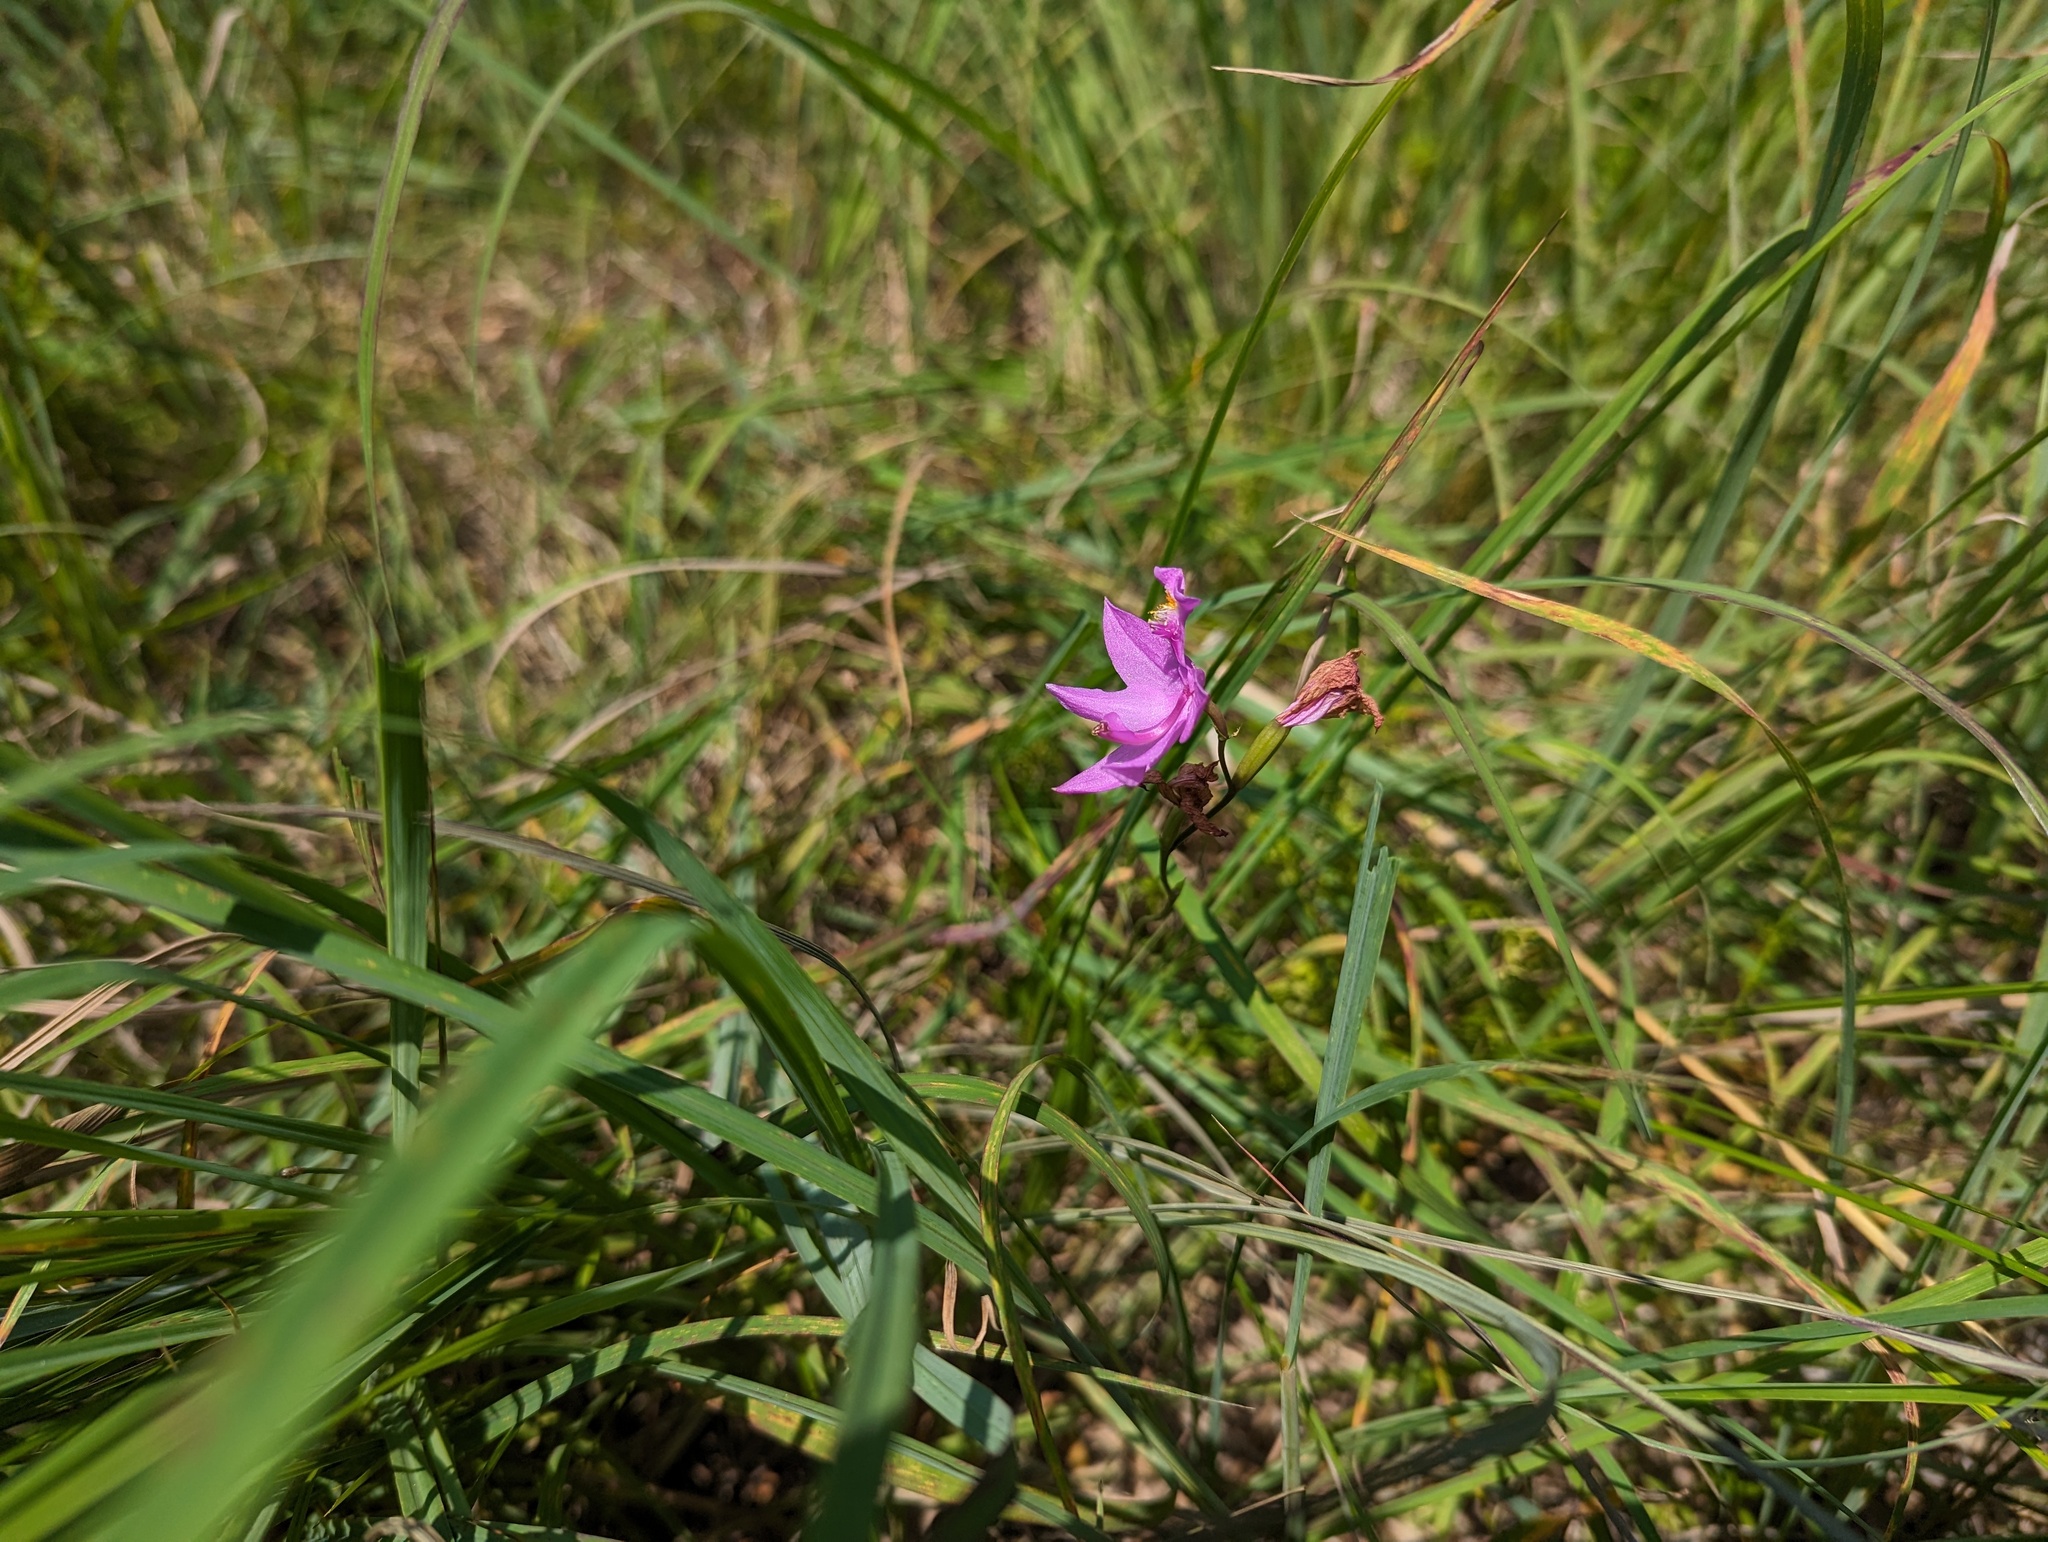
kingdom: Plantae
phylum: Tracheophyta
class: Liliopsida
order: Asparagales
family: Orchidaceae
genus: Calopogon
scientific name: Calopogon tuberosus
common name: Grass-pink
